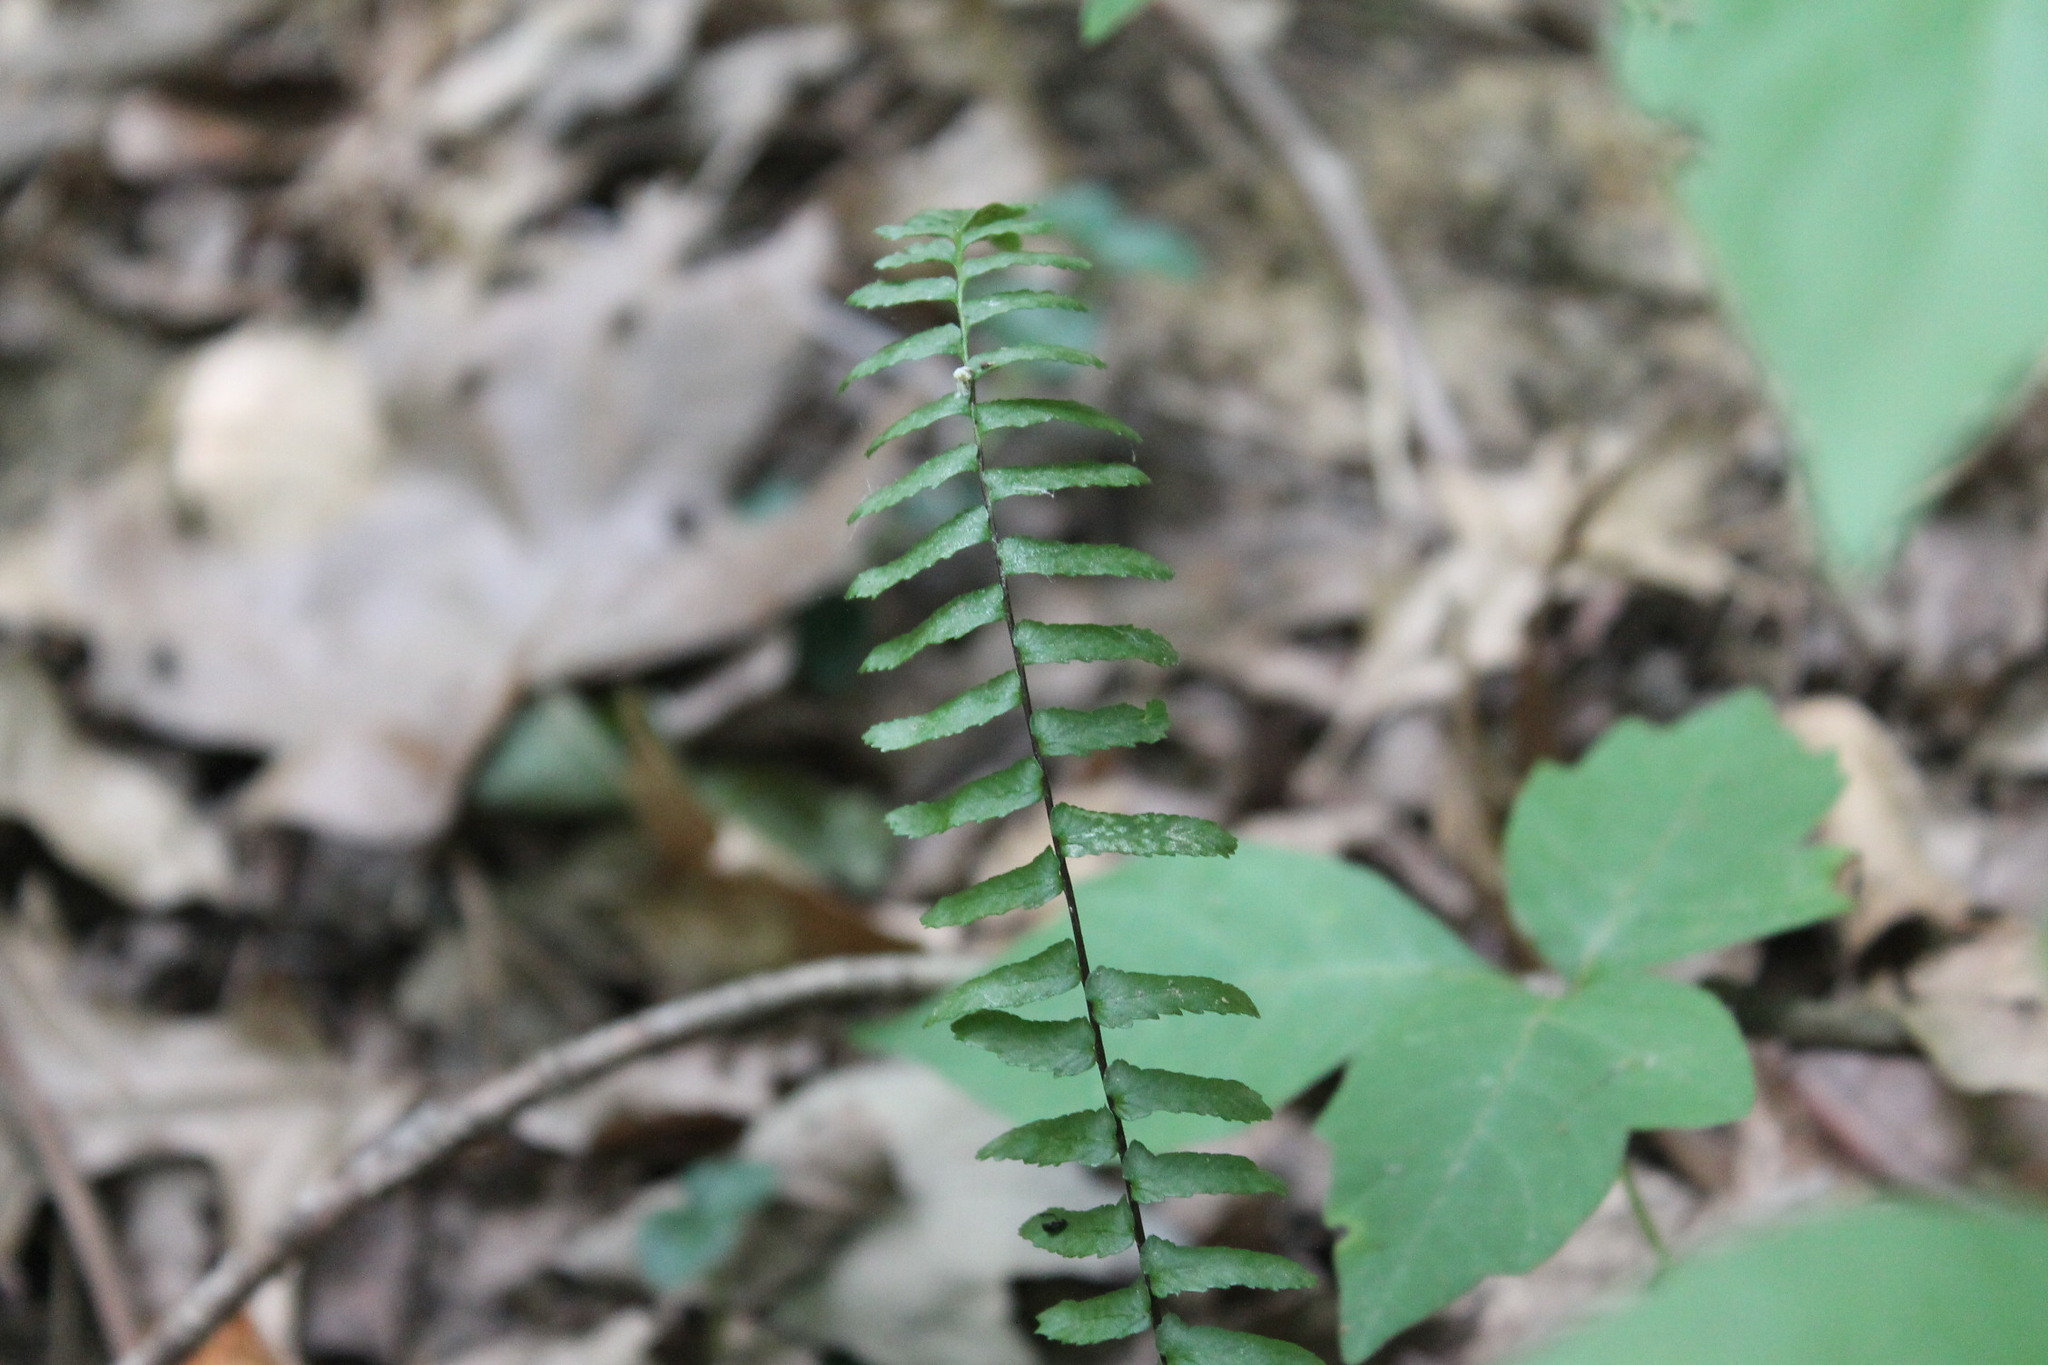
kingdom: Plantae
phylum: Tracheophyta
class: Polypodiopsida
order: Polypodiales
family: Aspleniaceae
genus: Asplenium
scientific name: Asplenium platyneuron
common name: Ebony spleenwort
